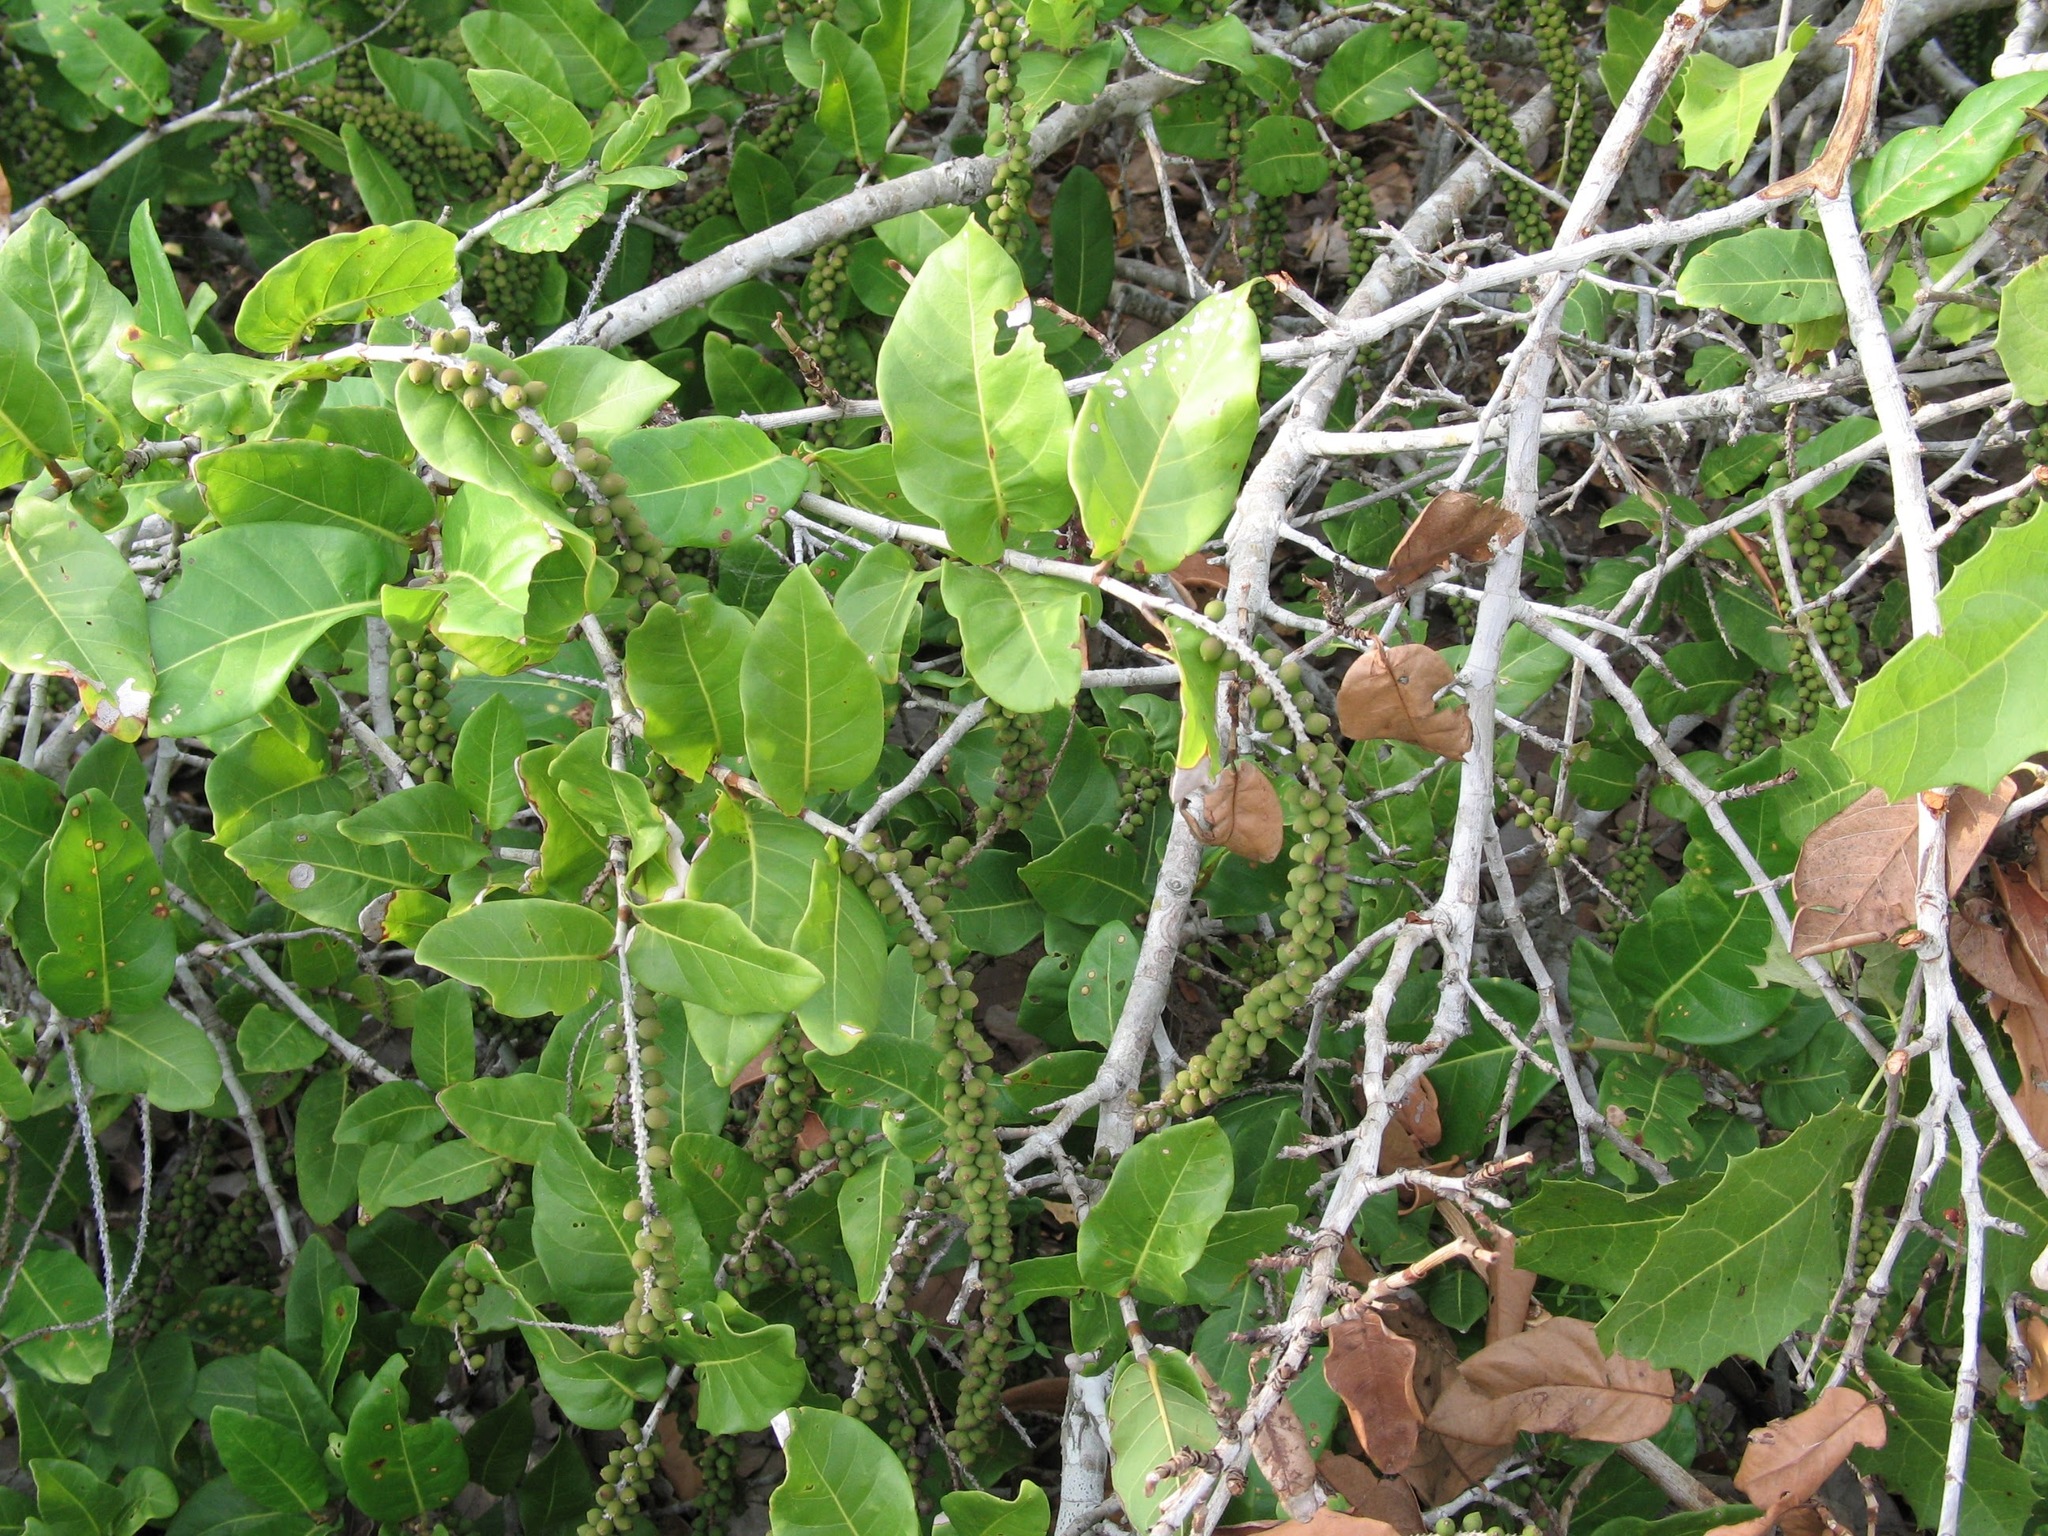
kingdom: Plantae
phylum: Tracheophyta
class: Magnoliopsida
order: Caryophyllales
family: Polygonaceae
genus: Coccoloba
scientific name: Coccoloba liebmannii
